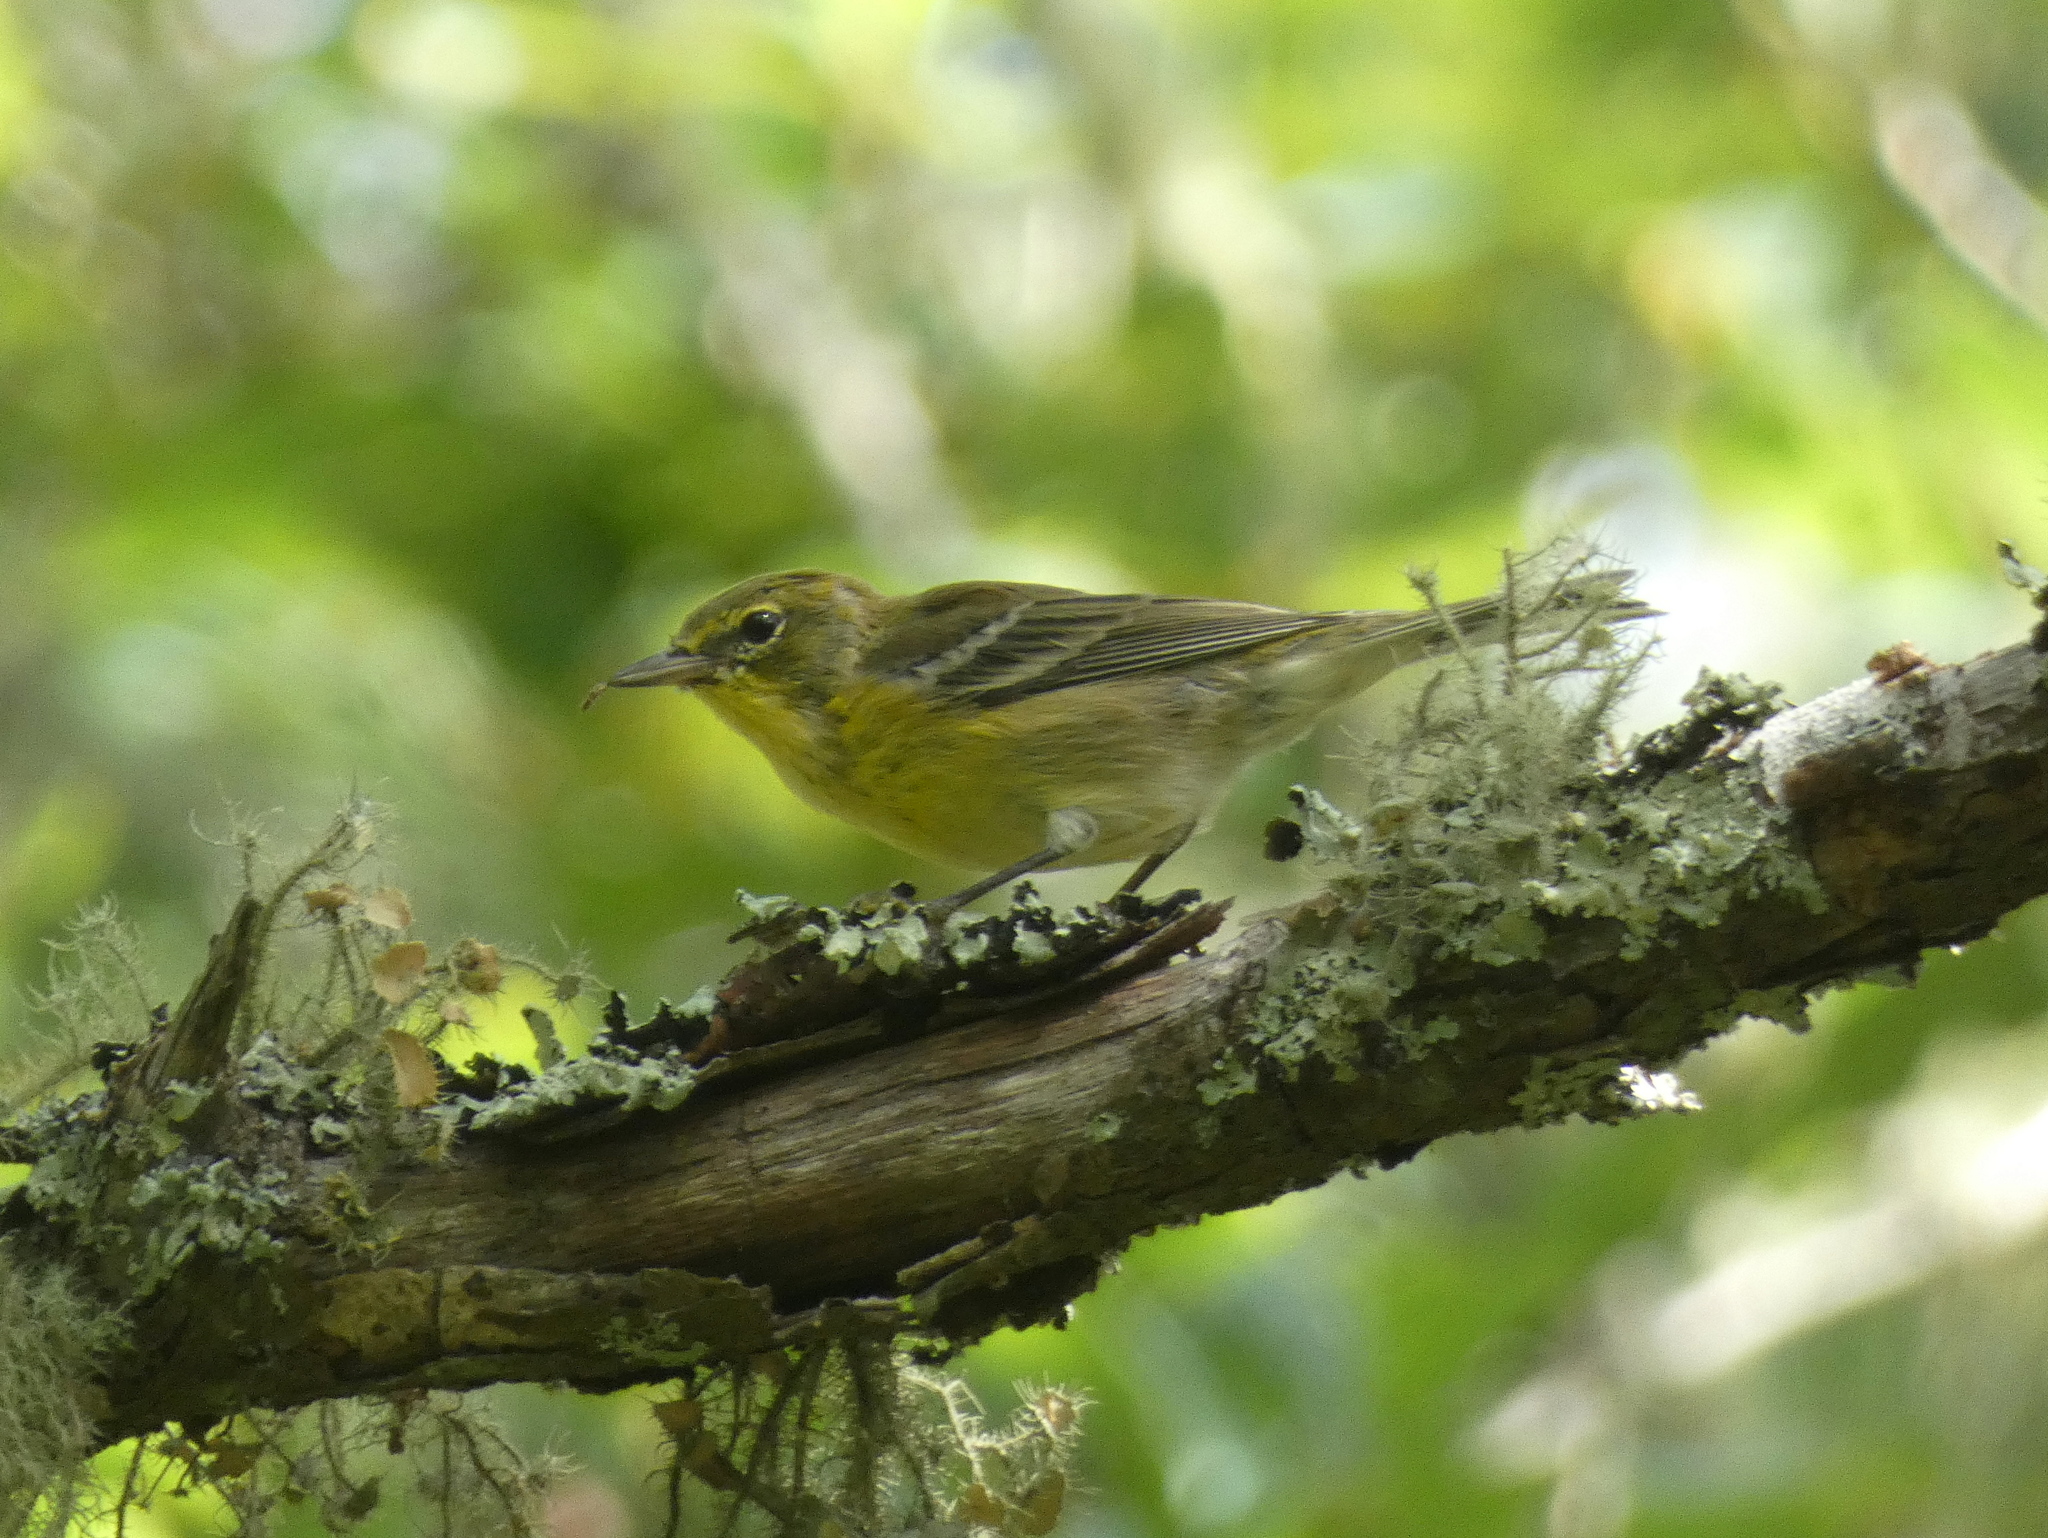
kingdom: Animalia
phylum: Chordata
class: Aves
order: Passeriformes
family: Parulidae
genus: Setophaga
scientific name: Setophaga pinus
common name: Pine warbler
